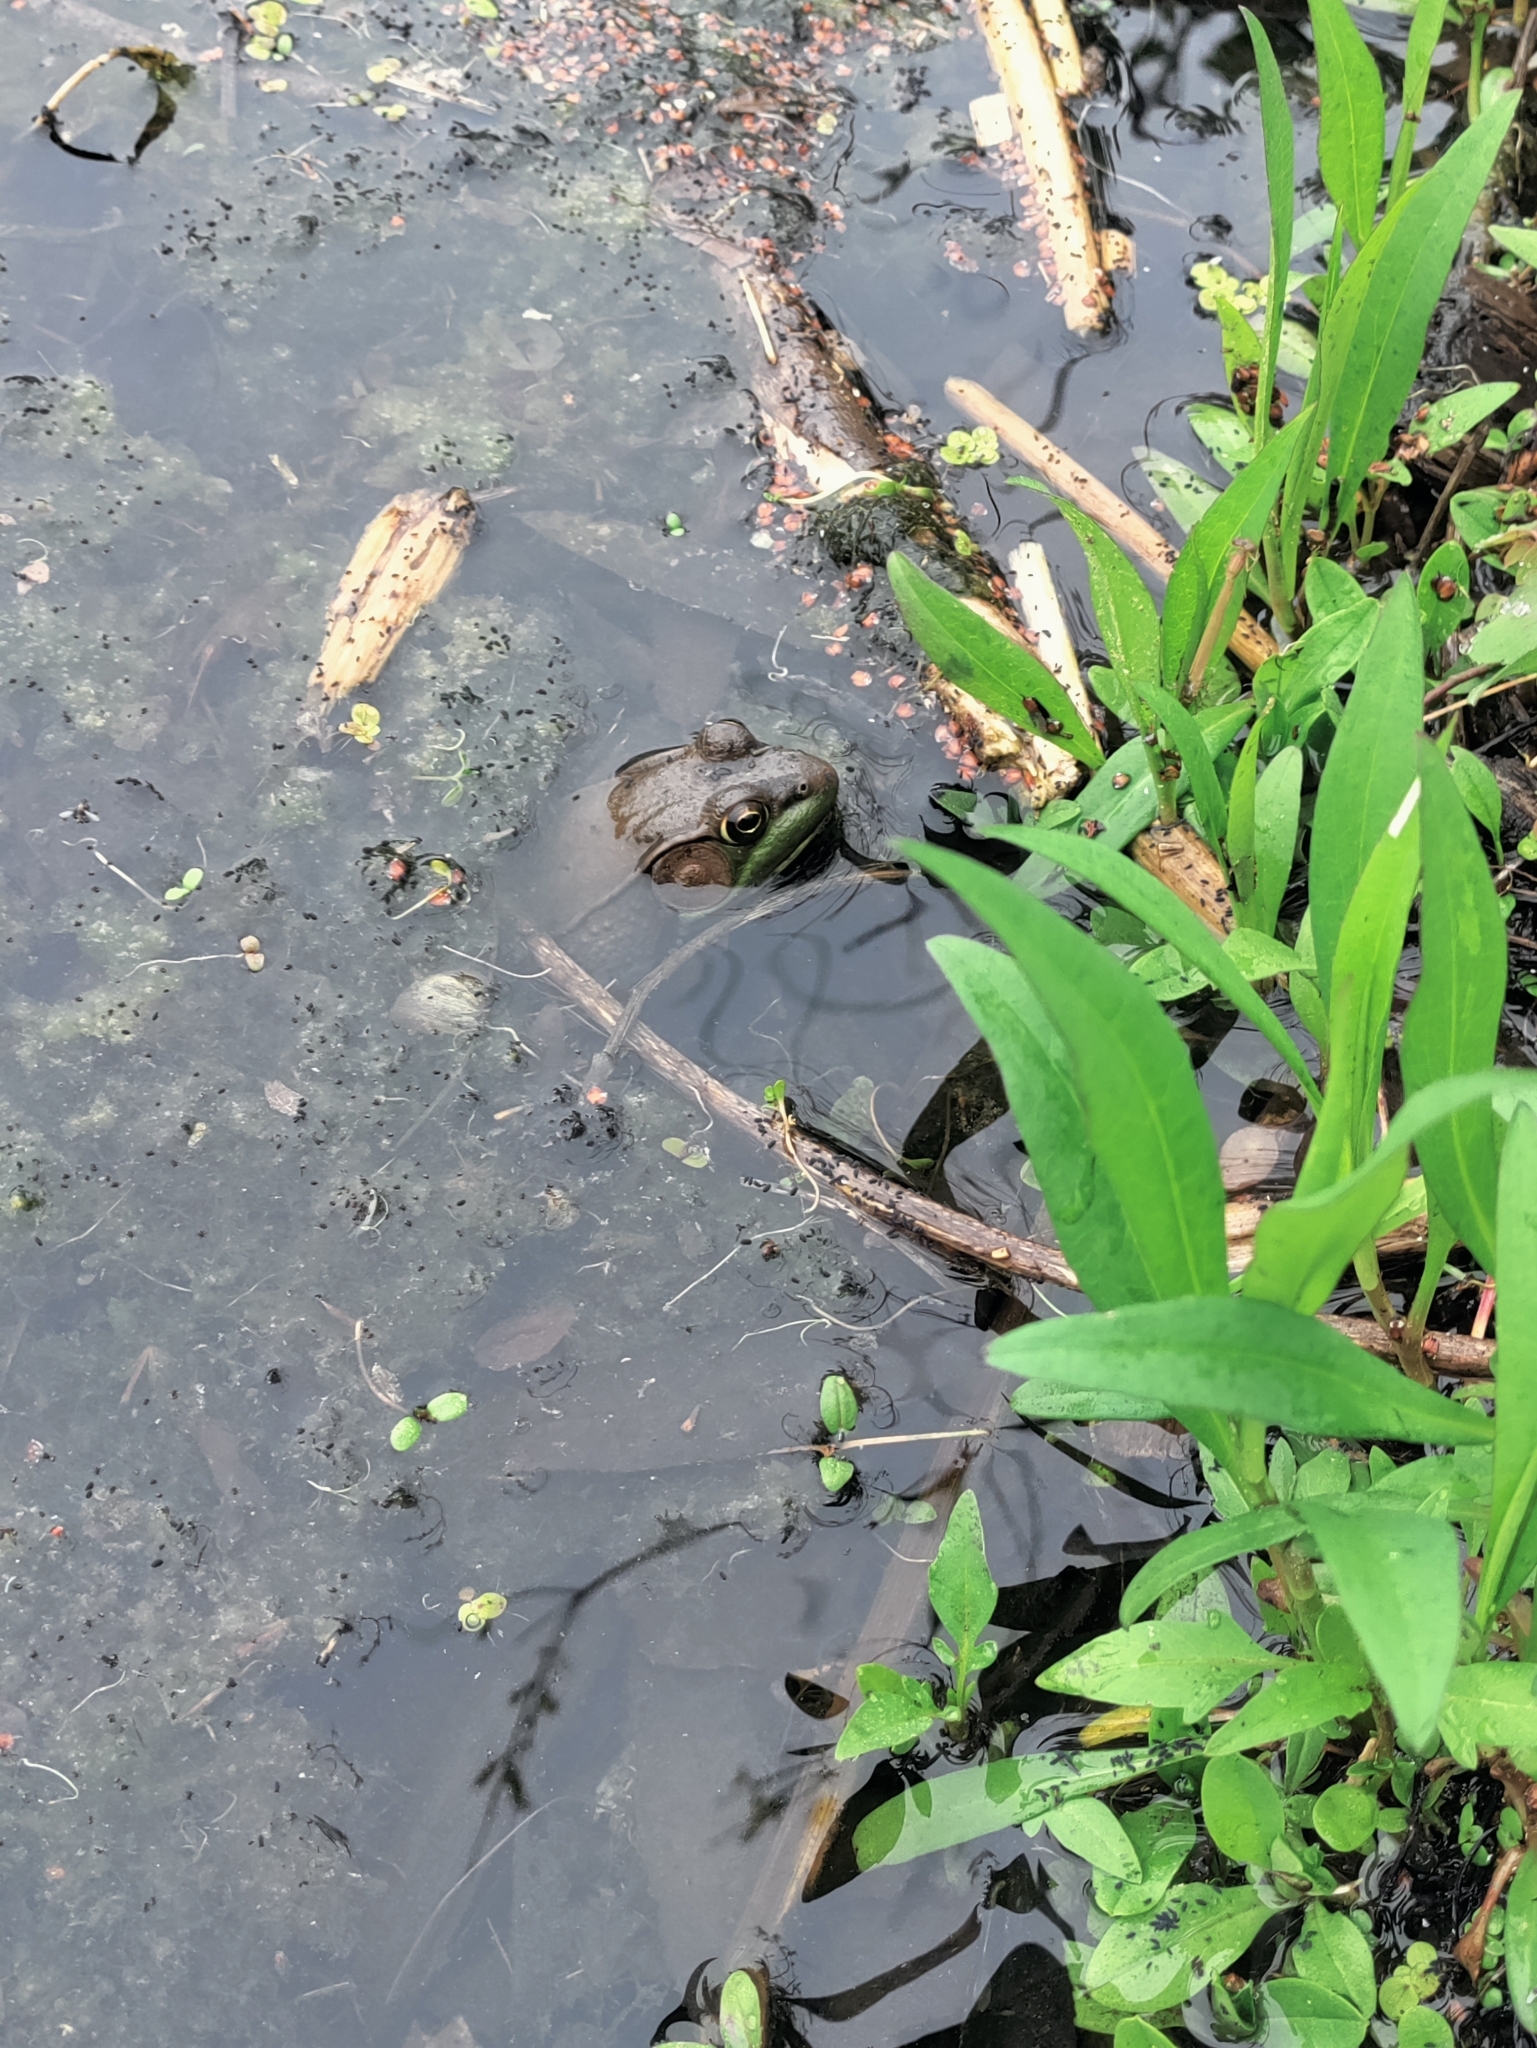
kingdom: Animalia
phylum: Chordata
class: Amphibia
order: Anura
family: Ranidae
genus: Lithobates
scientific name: Lithobates clamitans
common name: Green frog
